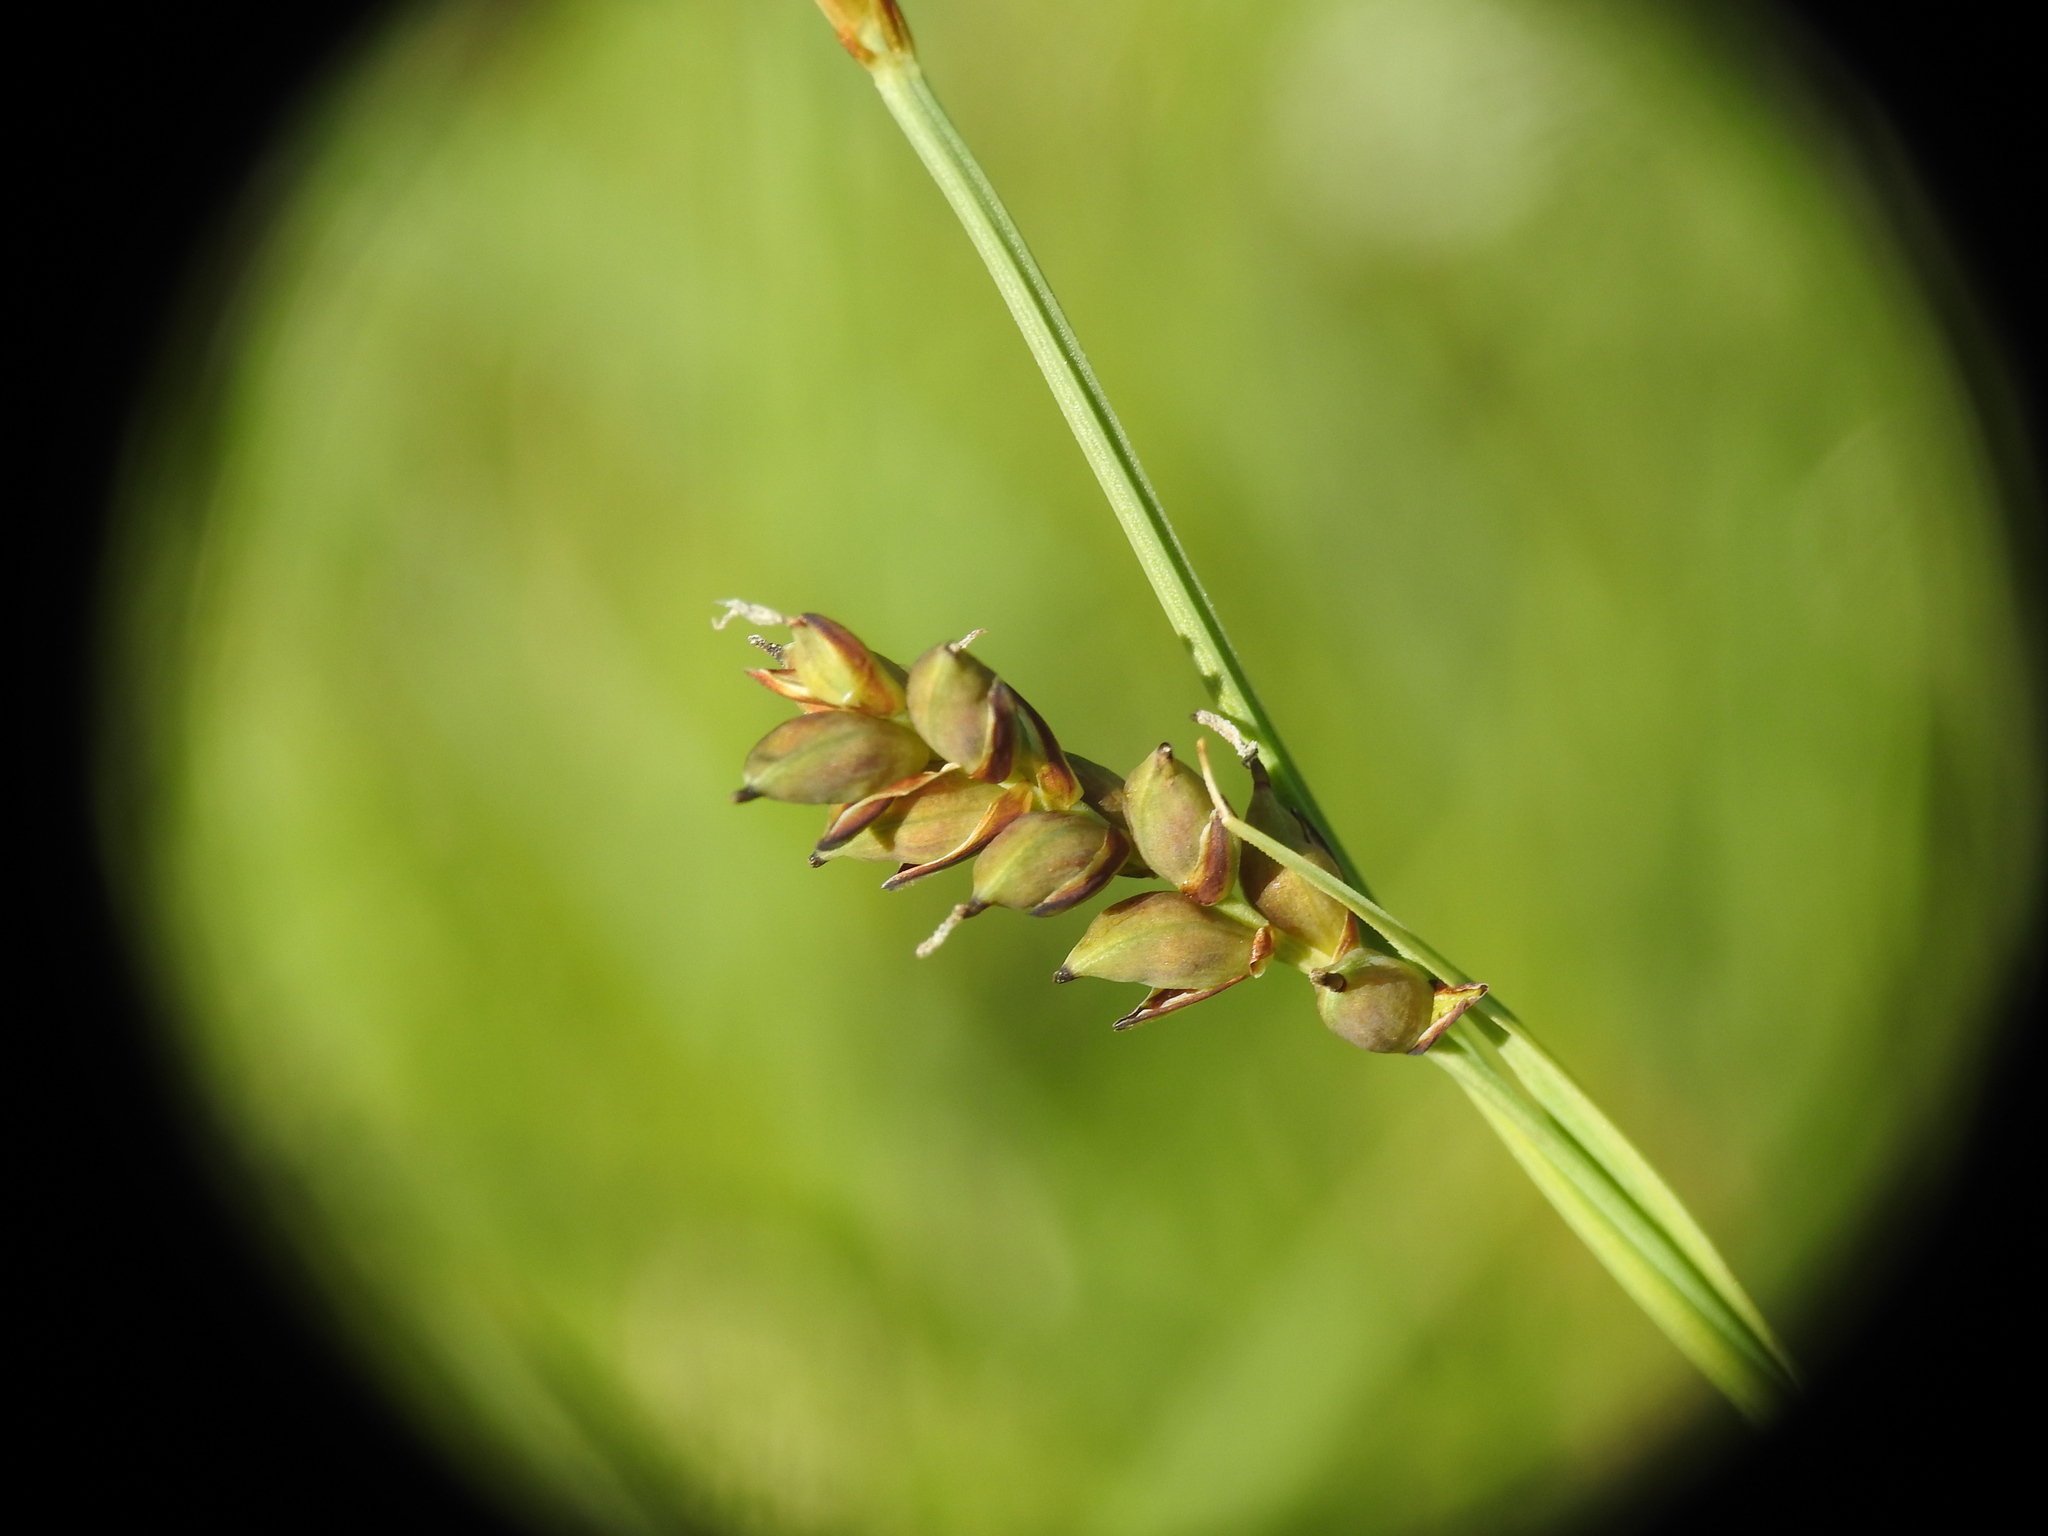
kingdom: Plantae
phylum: Tracheophyta
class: Liliopsida
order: Poales
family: Cyperaceae
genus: Carex
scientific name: Carex panicea
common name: Carnation sedge
